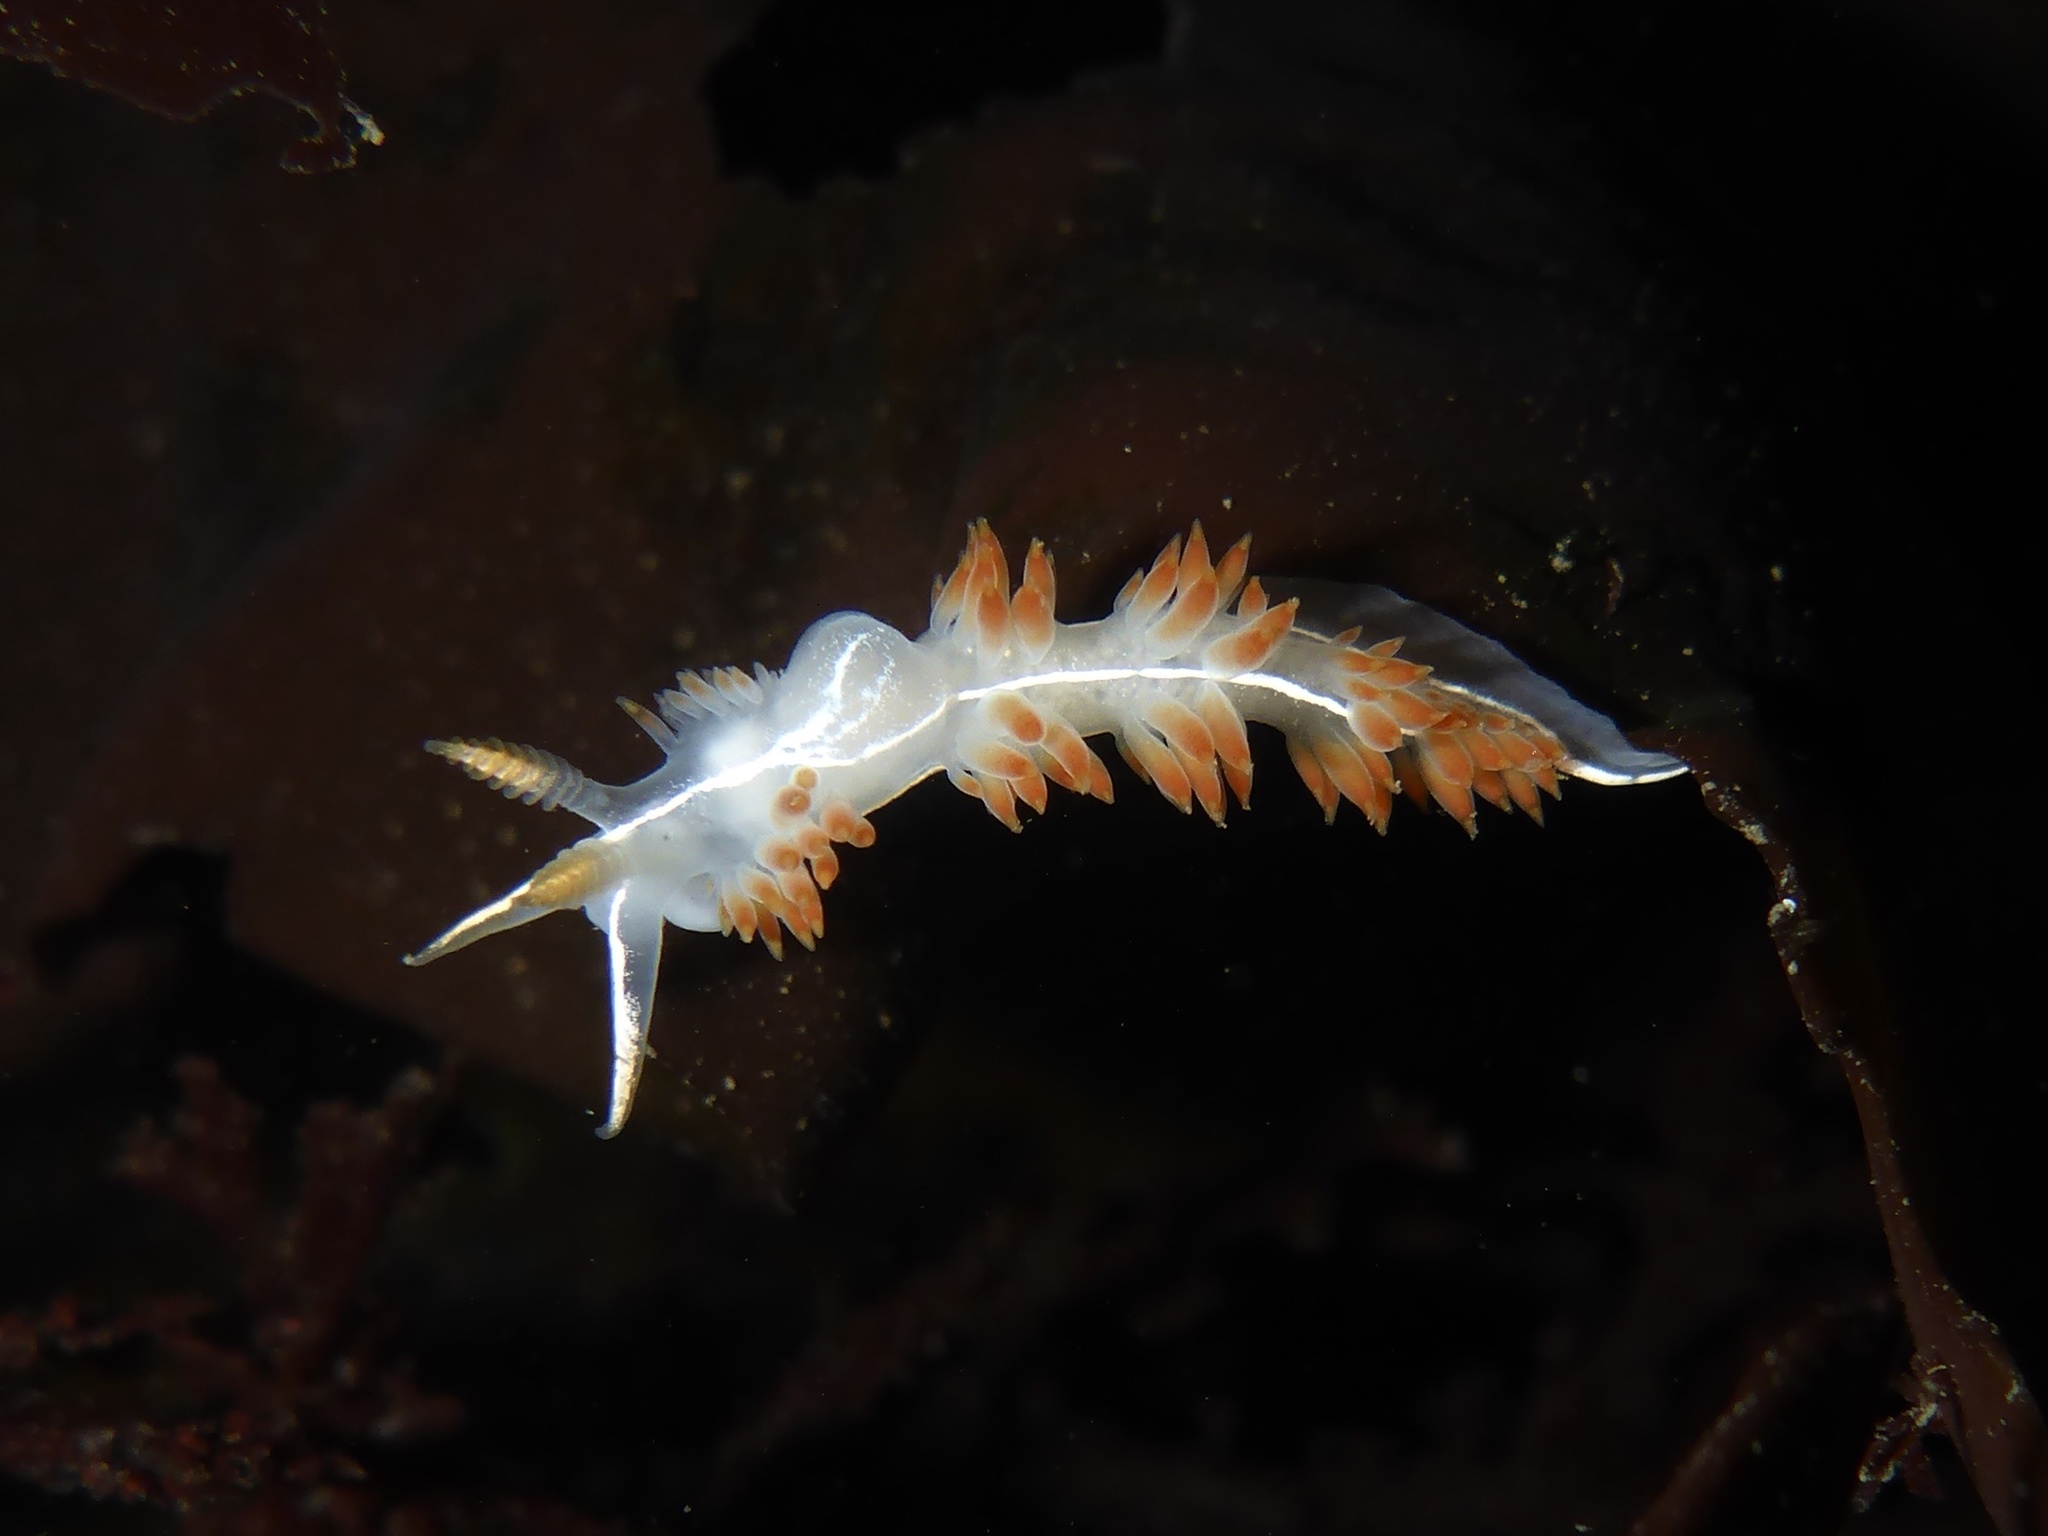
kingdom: Animalia
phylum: Mollusca
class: Gastropoda
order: Nudibranchia
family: Coryphellidae
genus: Coryphella
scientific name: Coryphella trilineata
